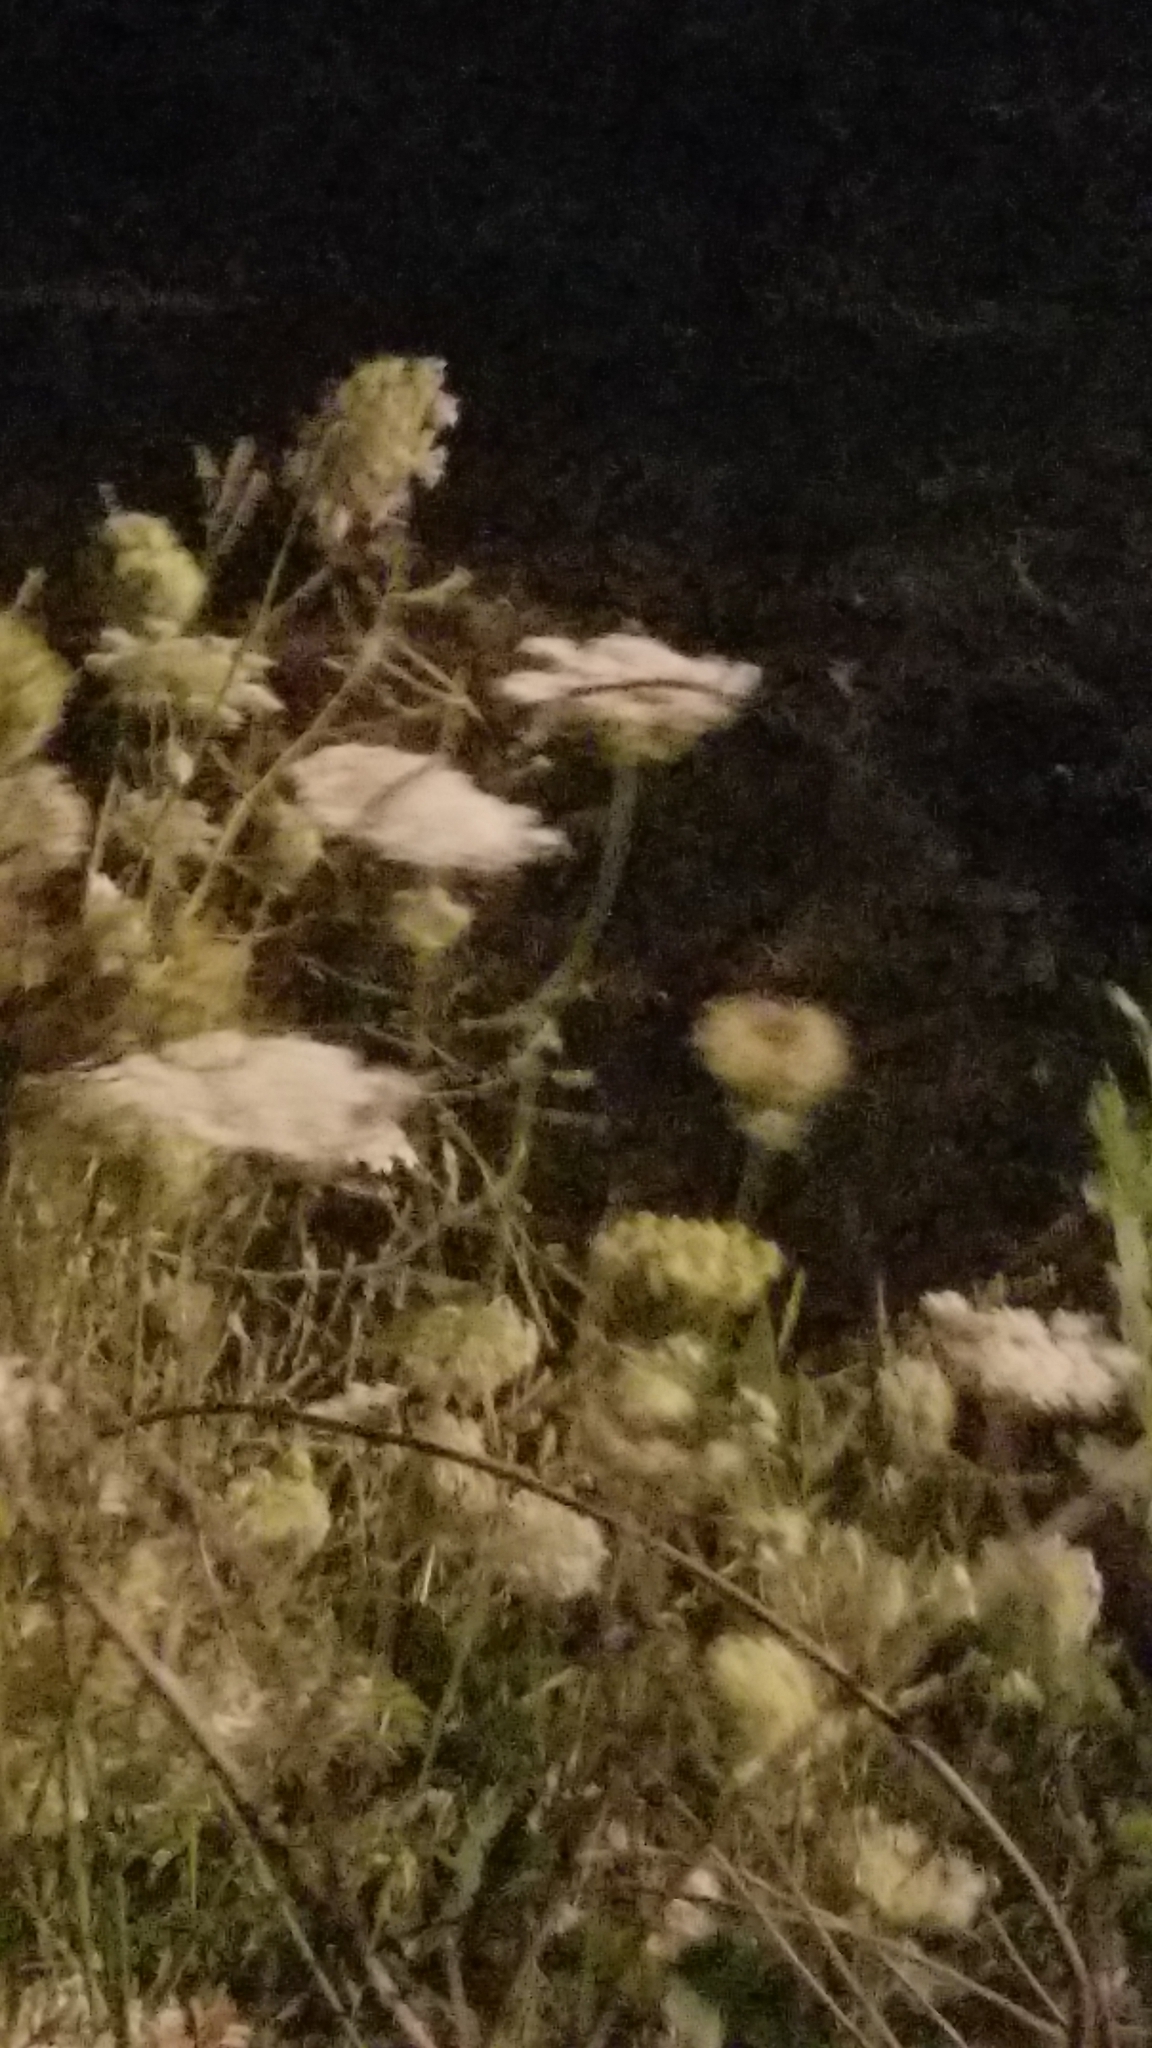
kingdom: Plantae
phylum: Tracheophyta
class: Magnoliopsida
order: Apiales
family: Apiaceae
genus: Daucus
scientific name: Daucus carota
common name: Wild carrot
